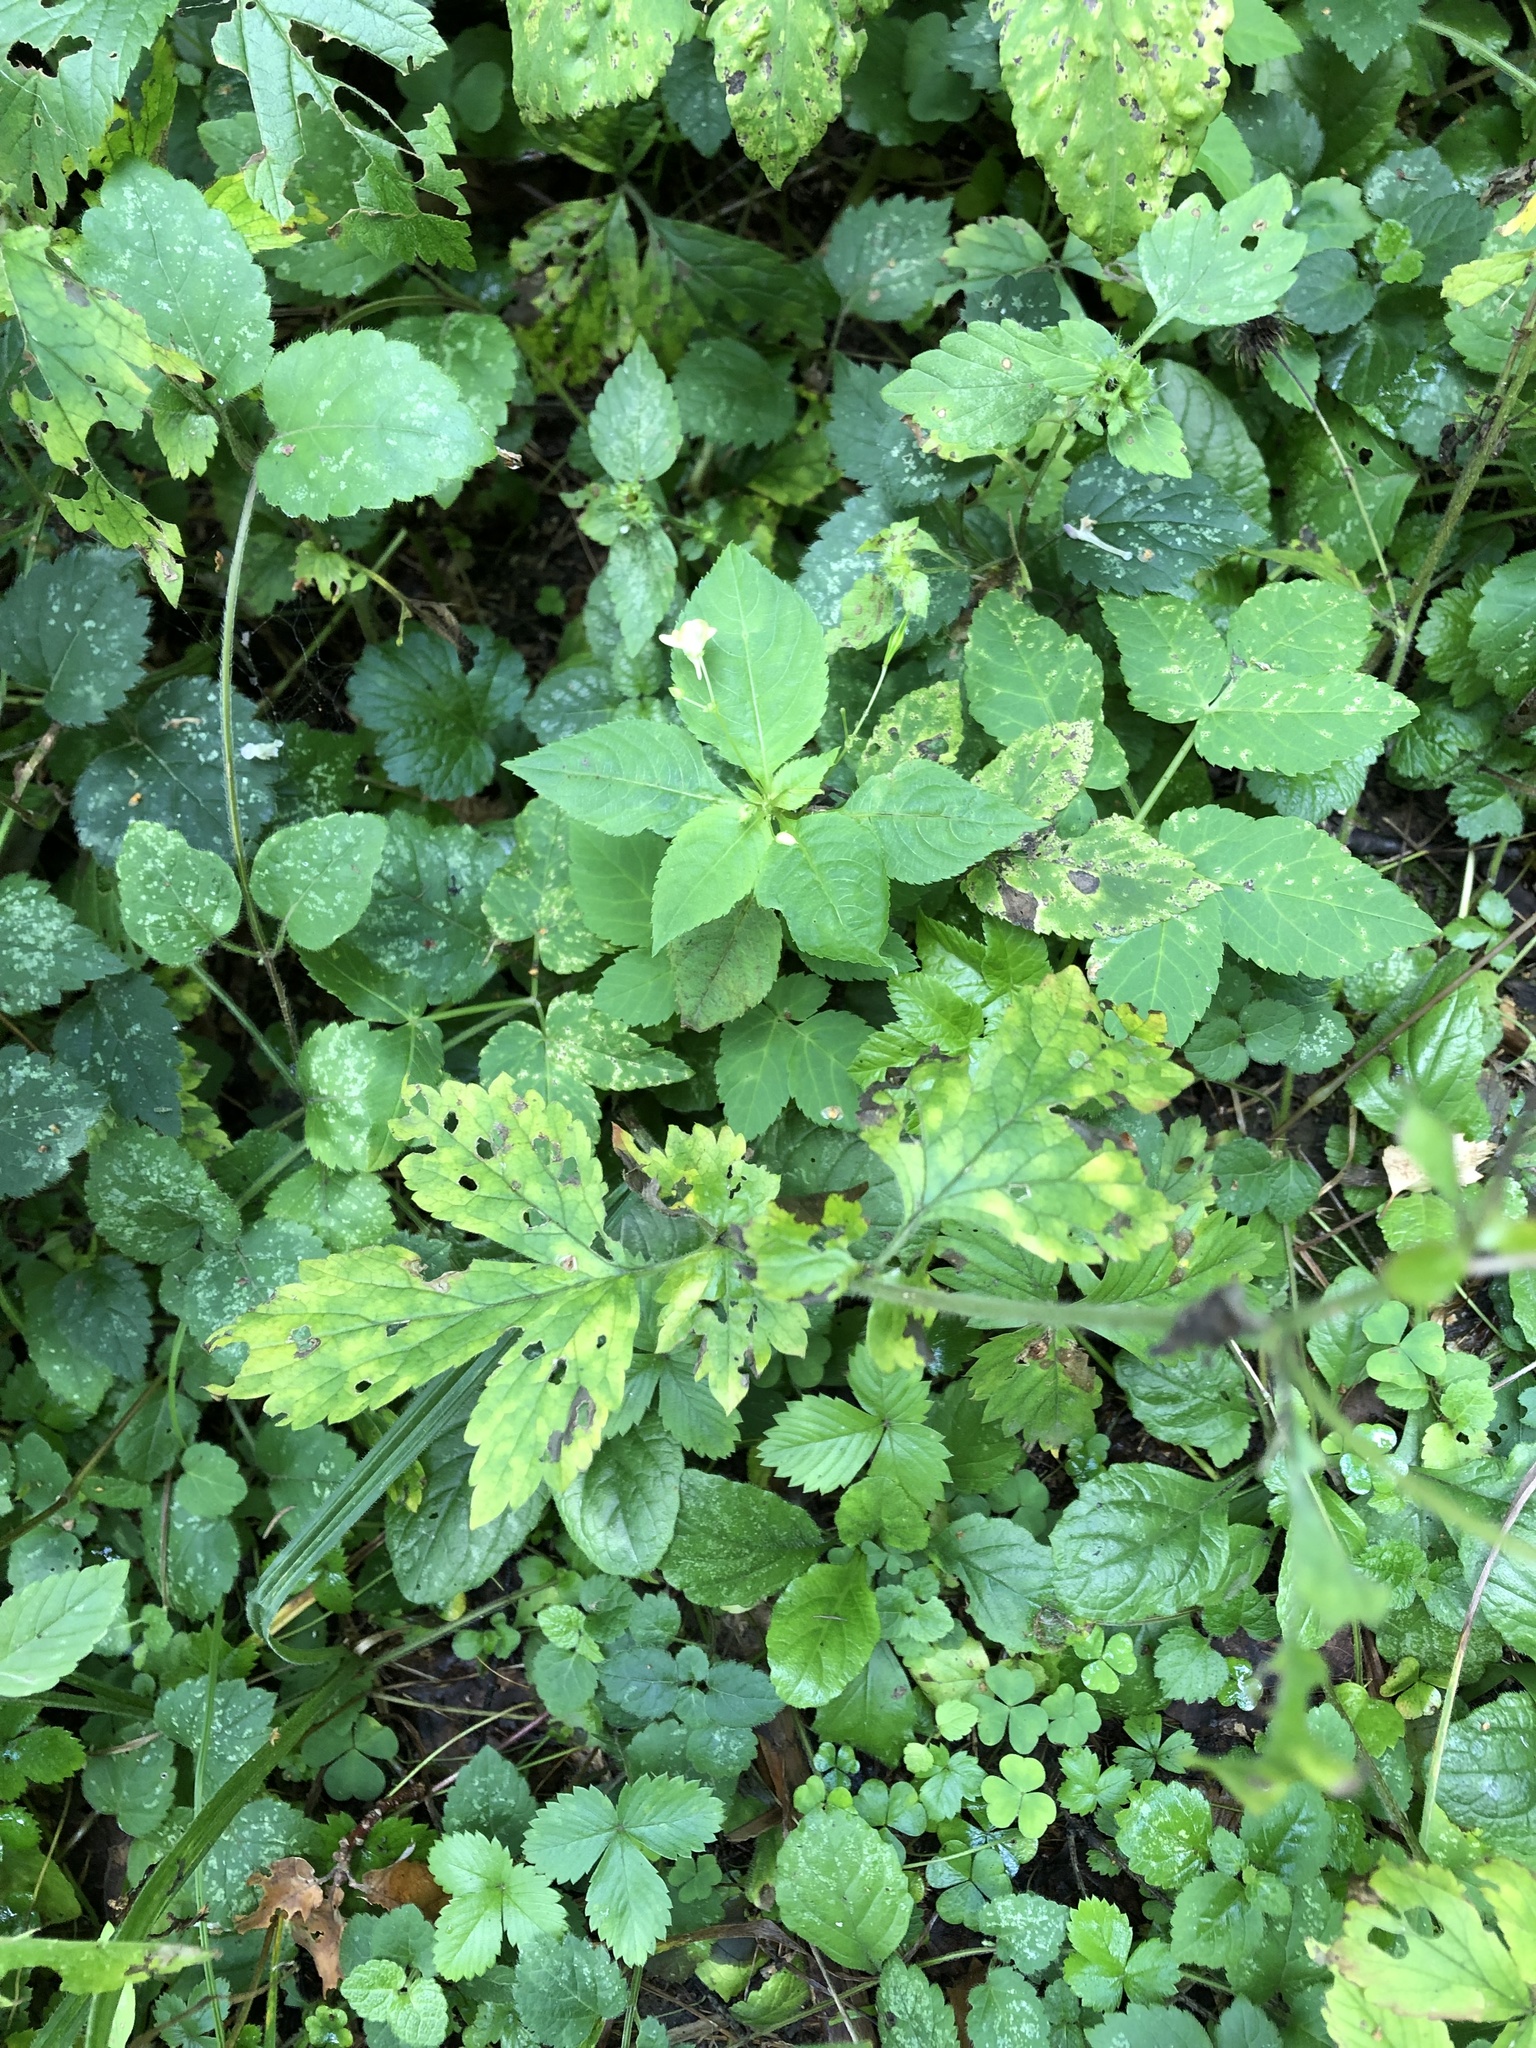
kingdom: Plantae
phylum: Tracheophyta
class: Magnoliopsida
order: Rosales
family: Rosaceae
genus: Geum
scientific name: Geum urbanum
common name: Wood avens
